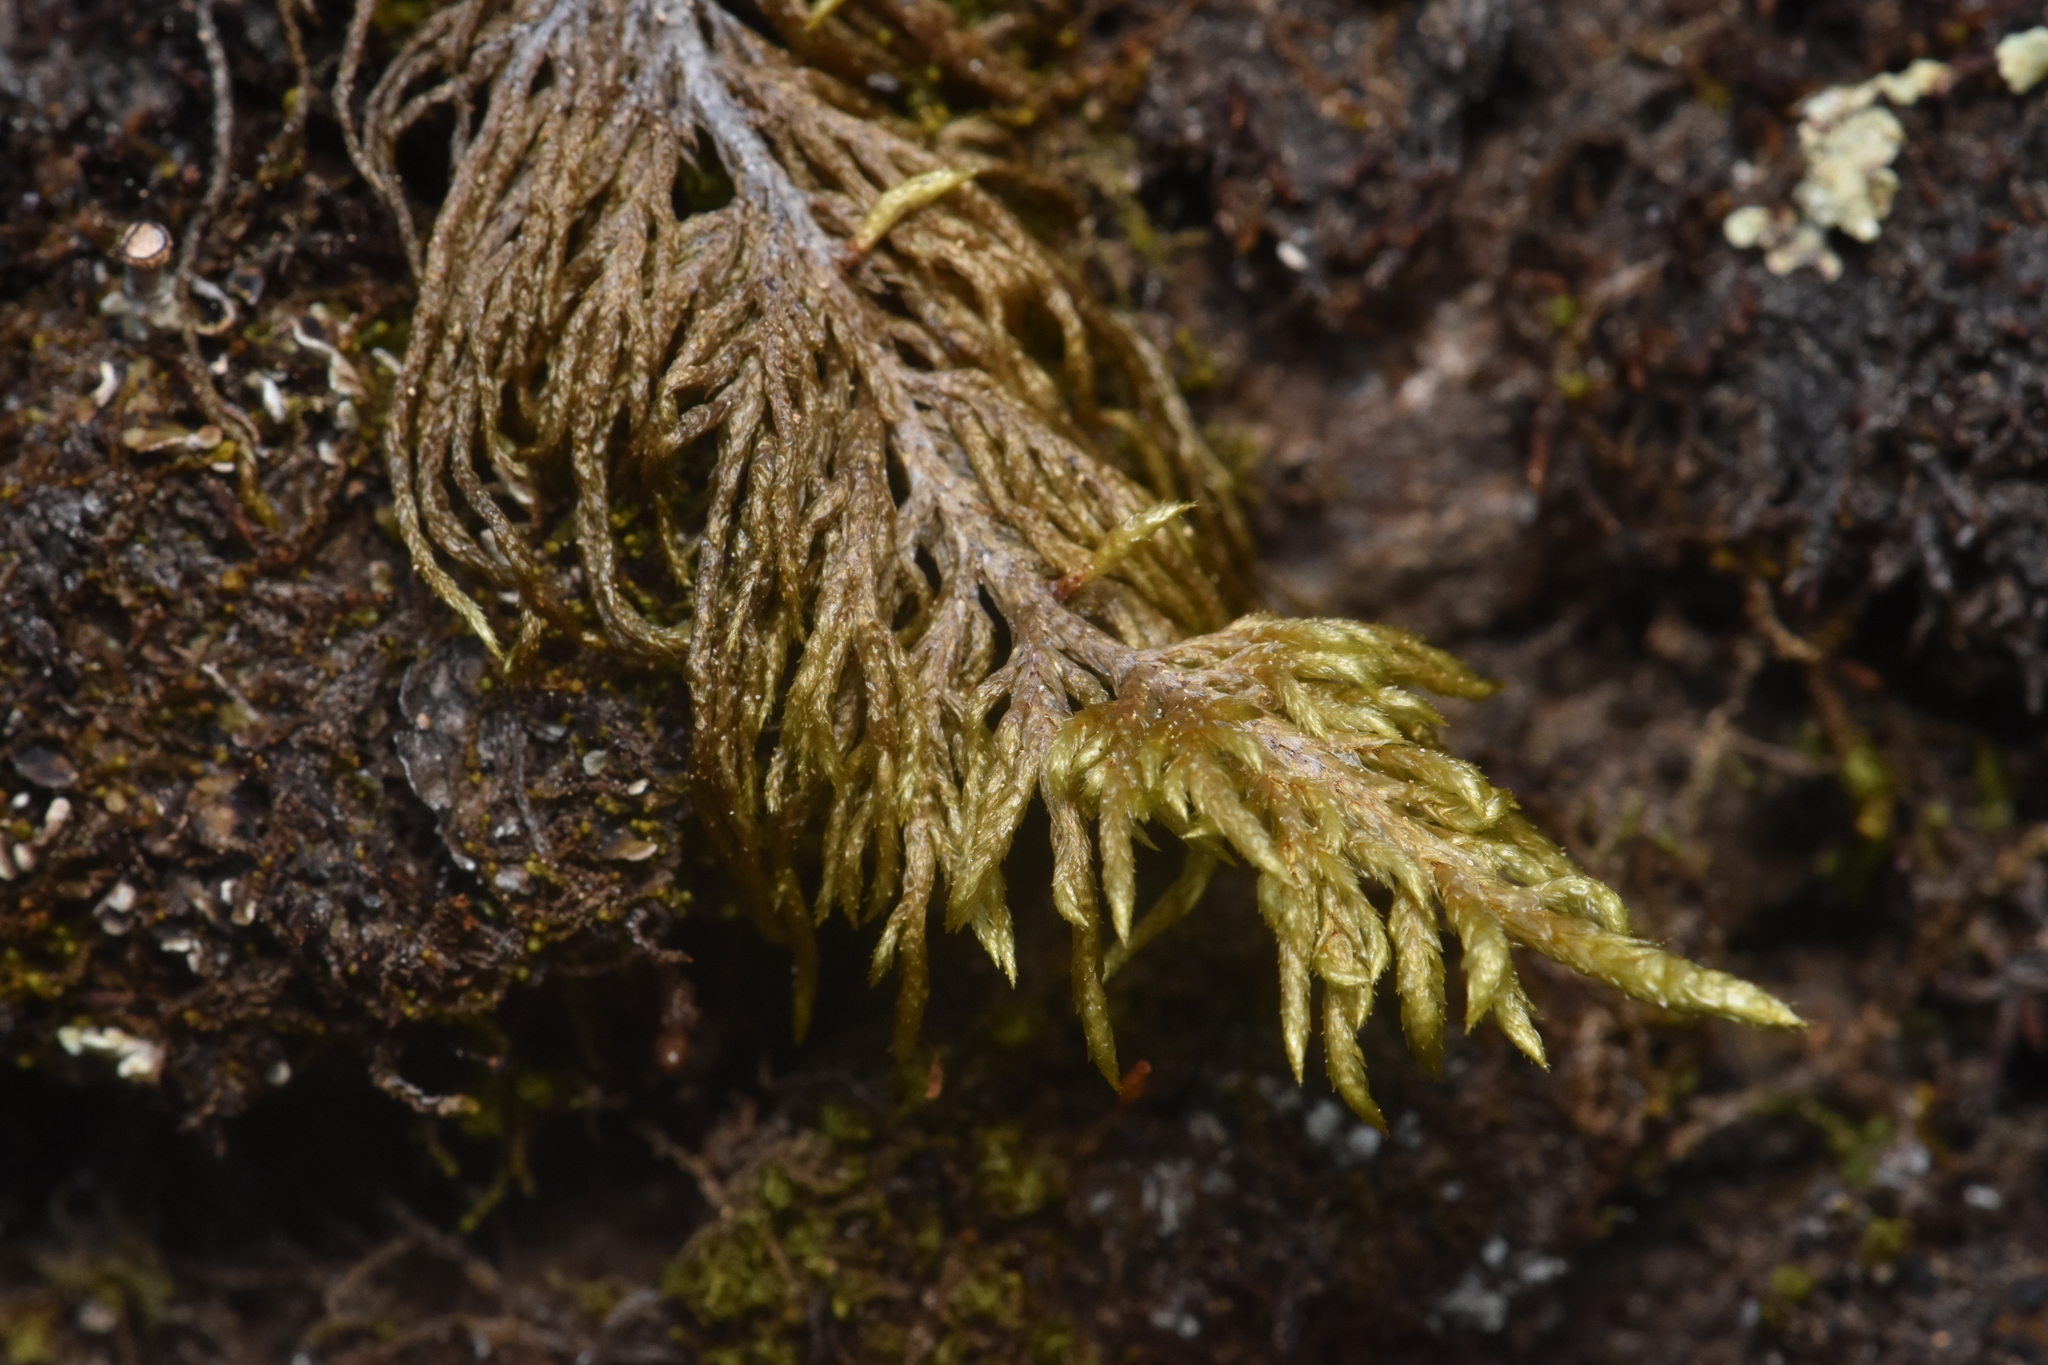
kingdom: Plantae
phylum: Bryophyta
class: Bryopsida
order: Hypnales
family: Hylocomiaceae
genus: Hylocomium
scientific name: Hylocomium splendens
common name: Stairstep moss
